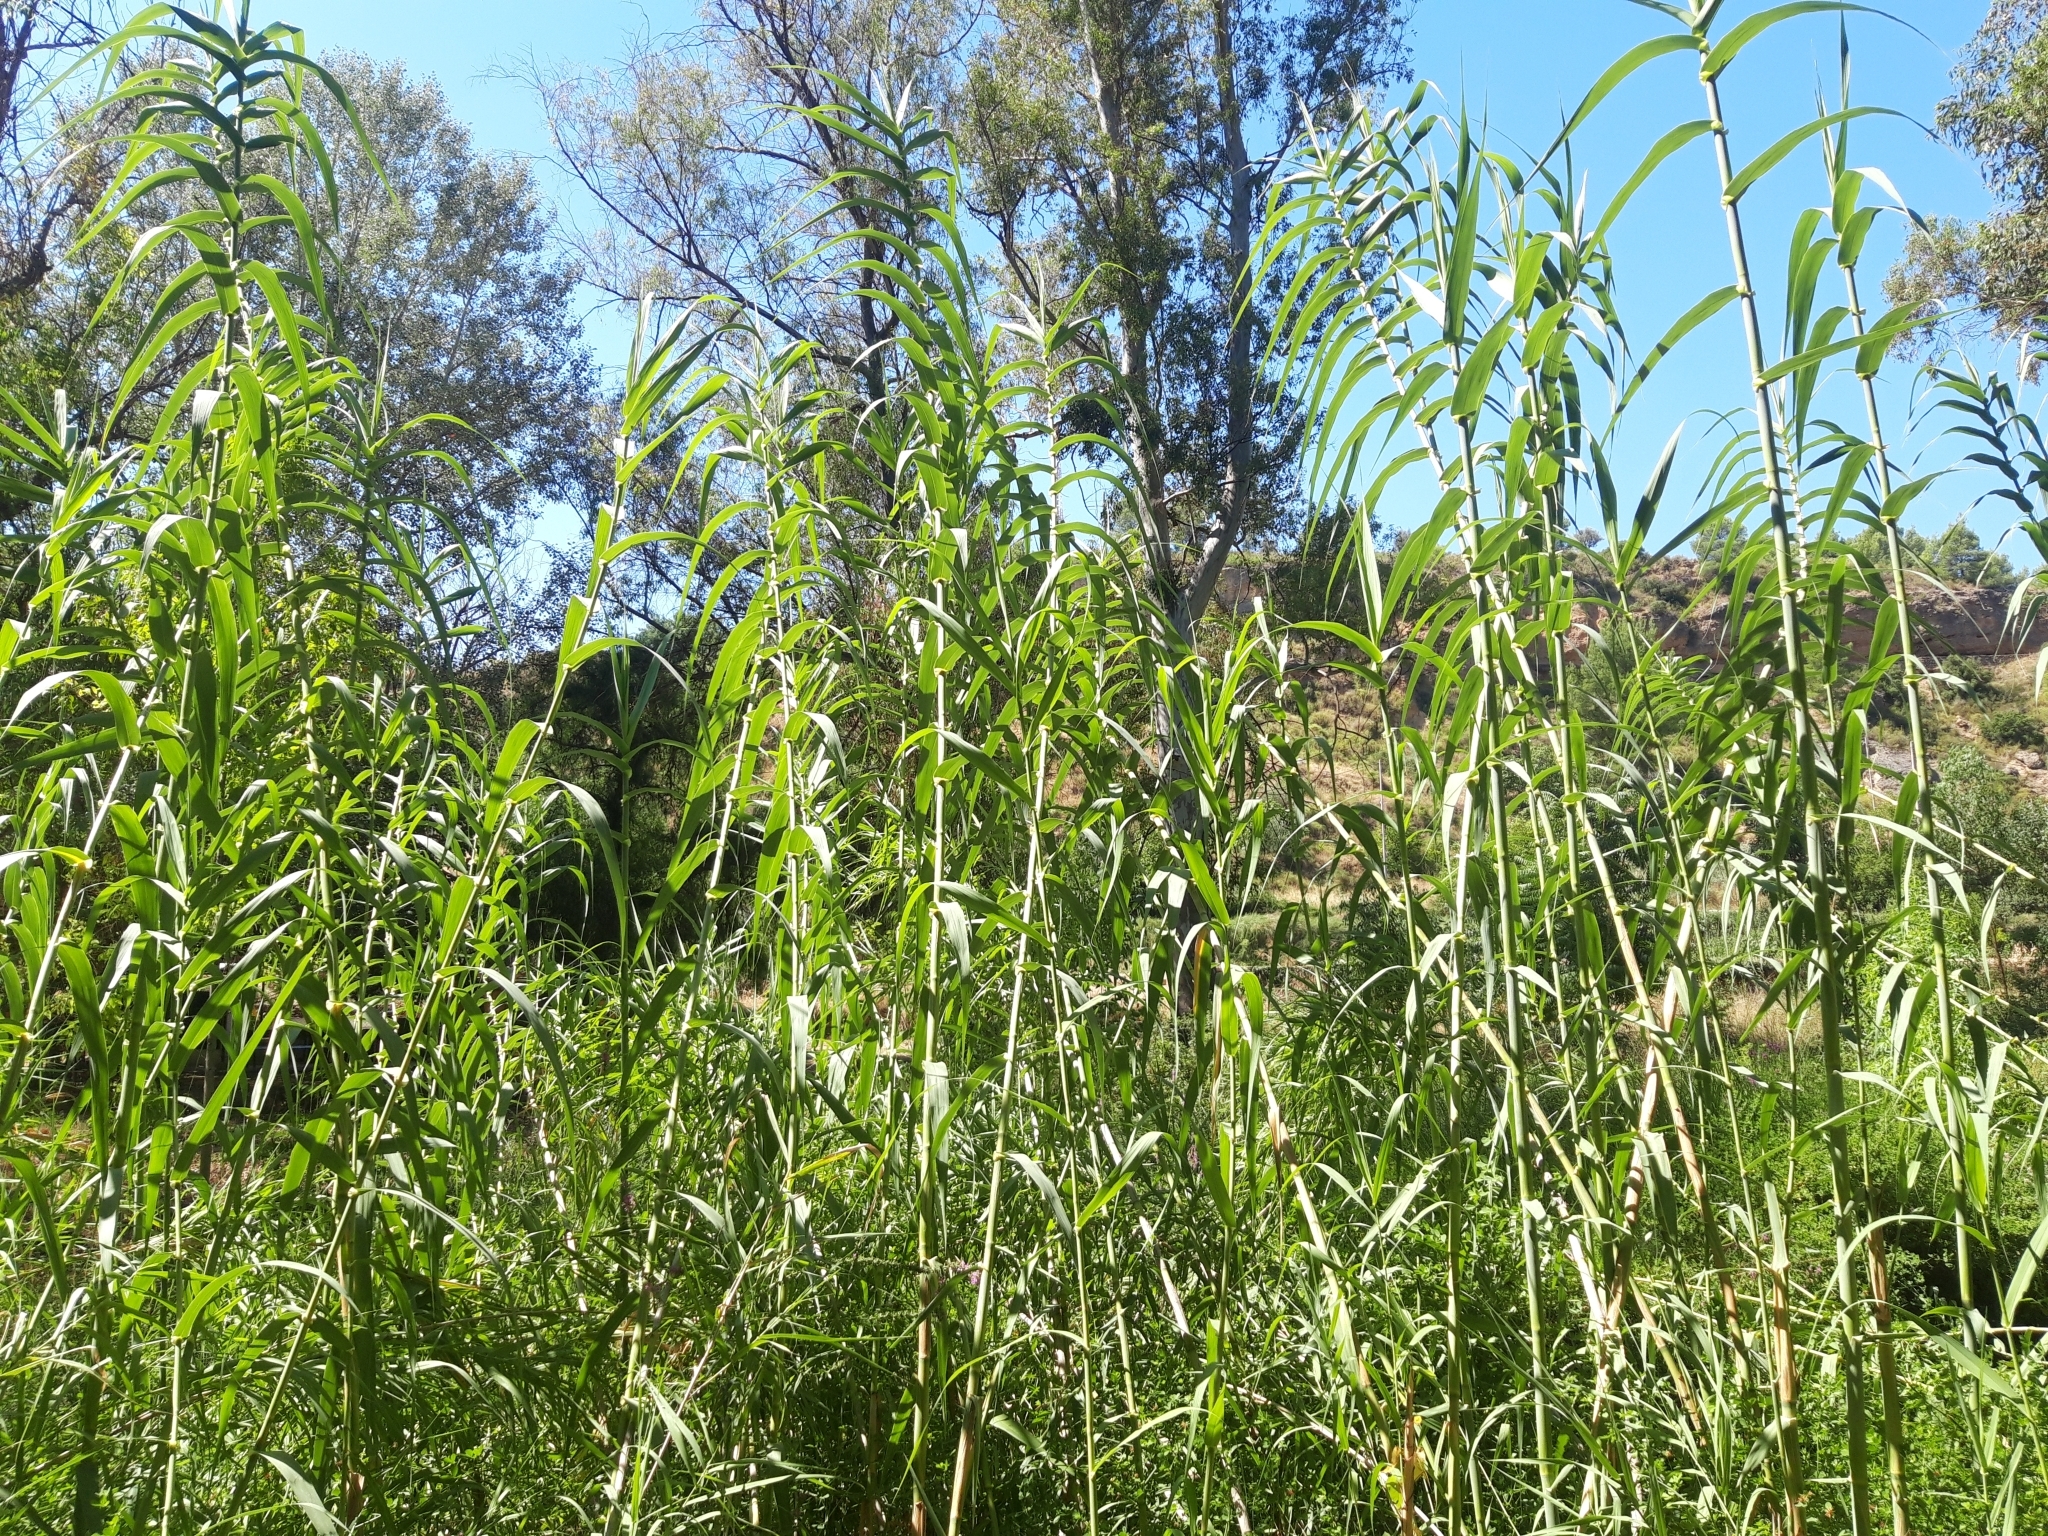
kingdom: Plantae
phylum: Tracheophyta
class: Liliopsida
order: Poales
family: Poaceae
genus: Arundo
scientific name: Arundo donax
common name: Giant reed
